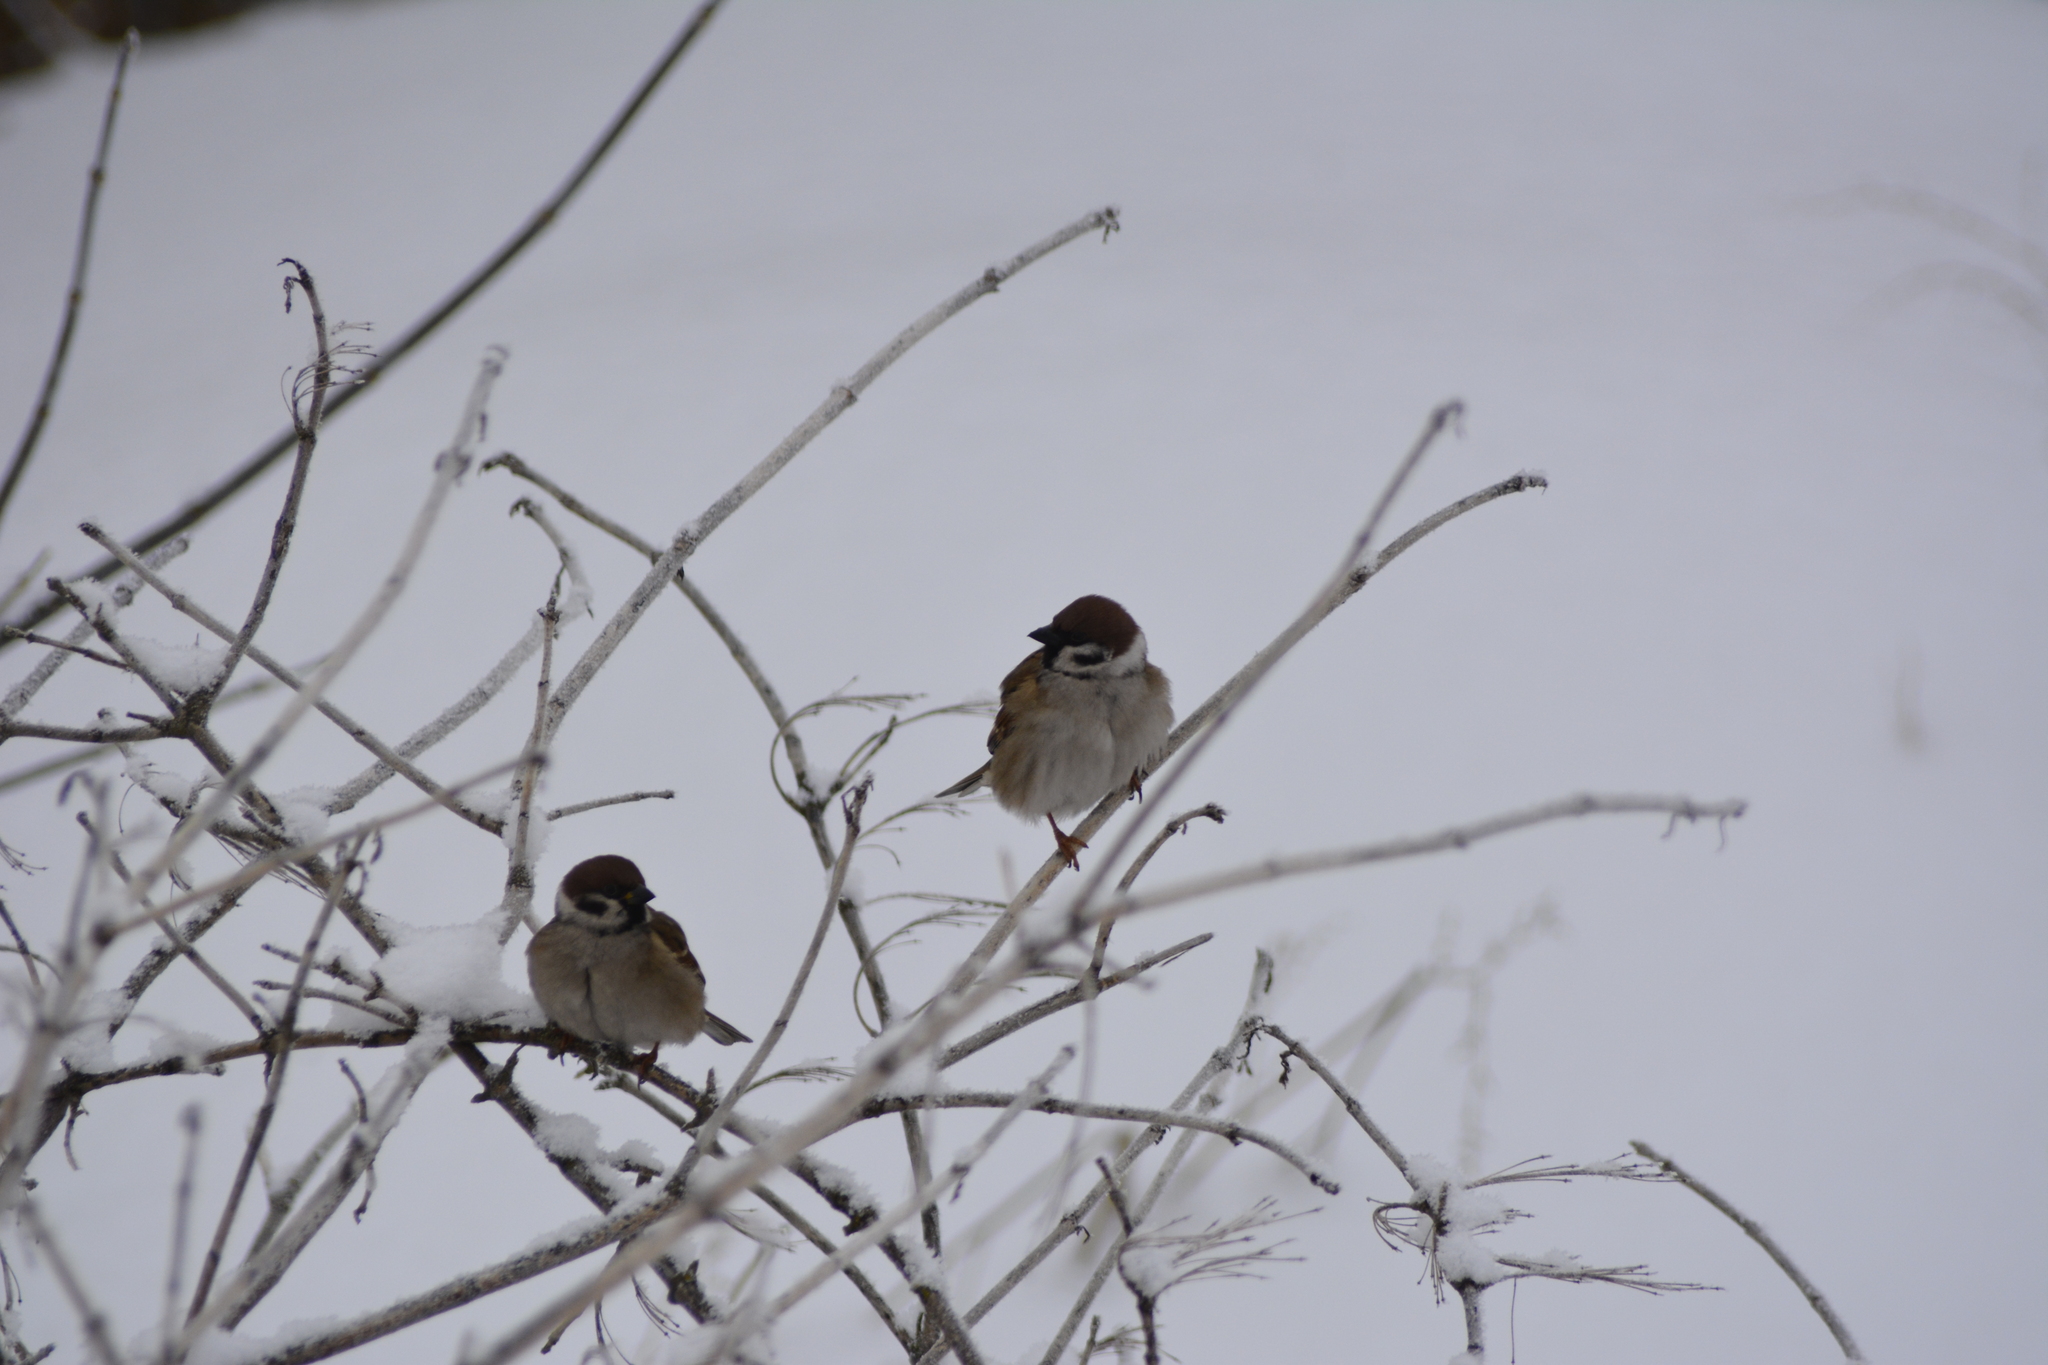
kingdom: Animalia
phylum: Chordata
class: Aves
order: Passeriformes
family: Passeridae
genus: Passer
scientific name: Passer montanus
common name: Eurasian tree sparrow
